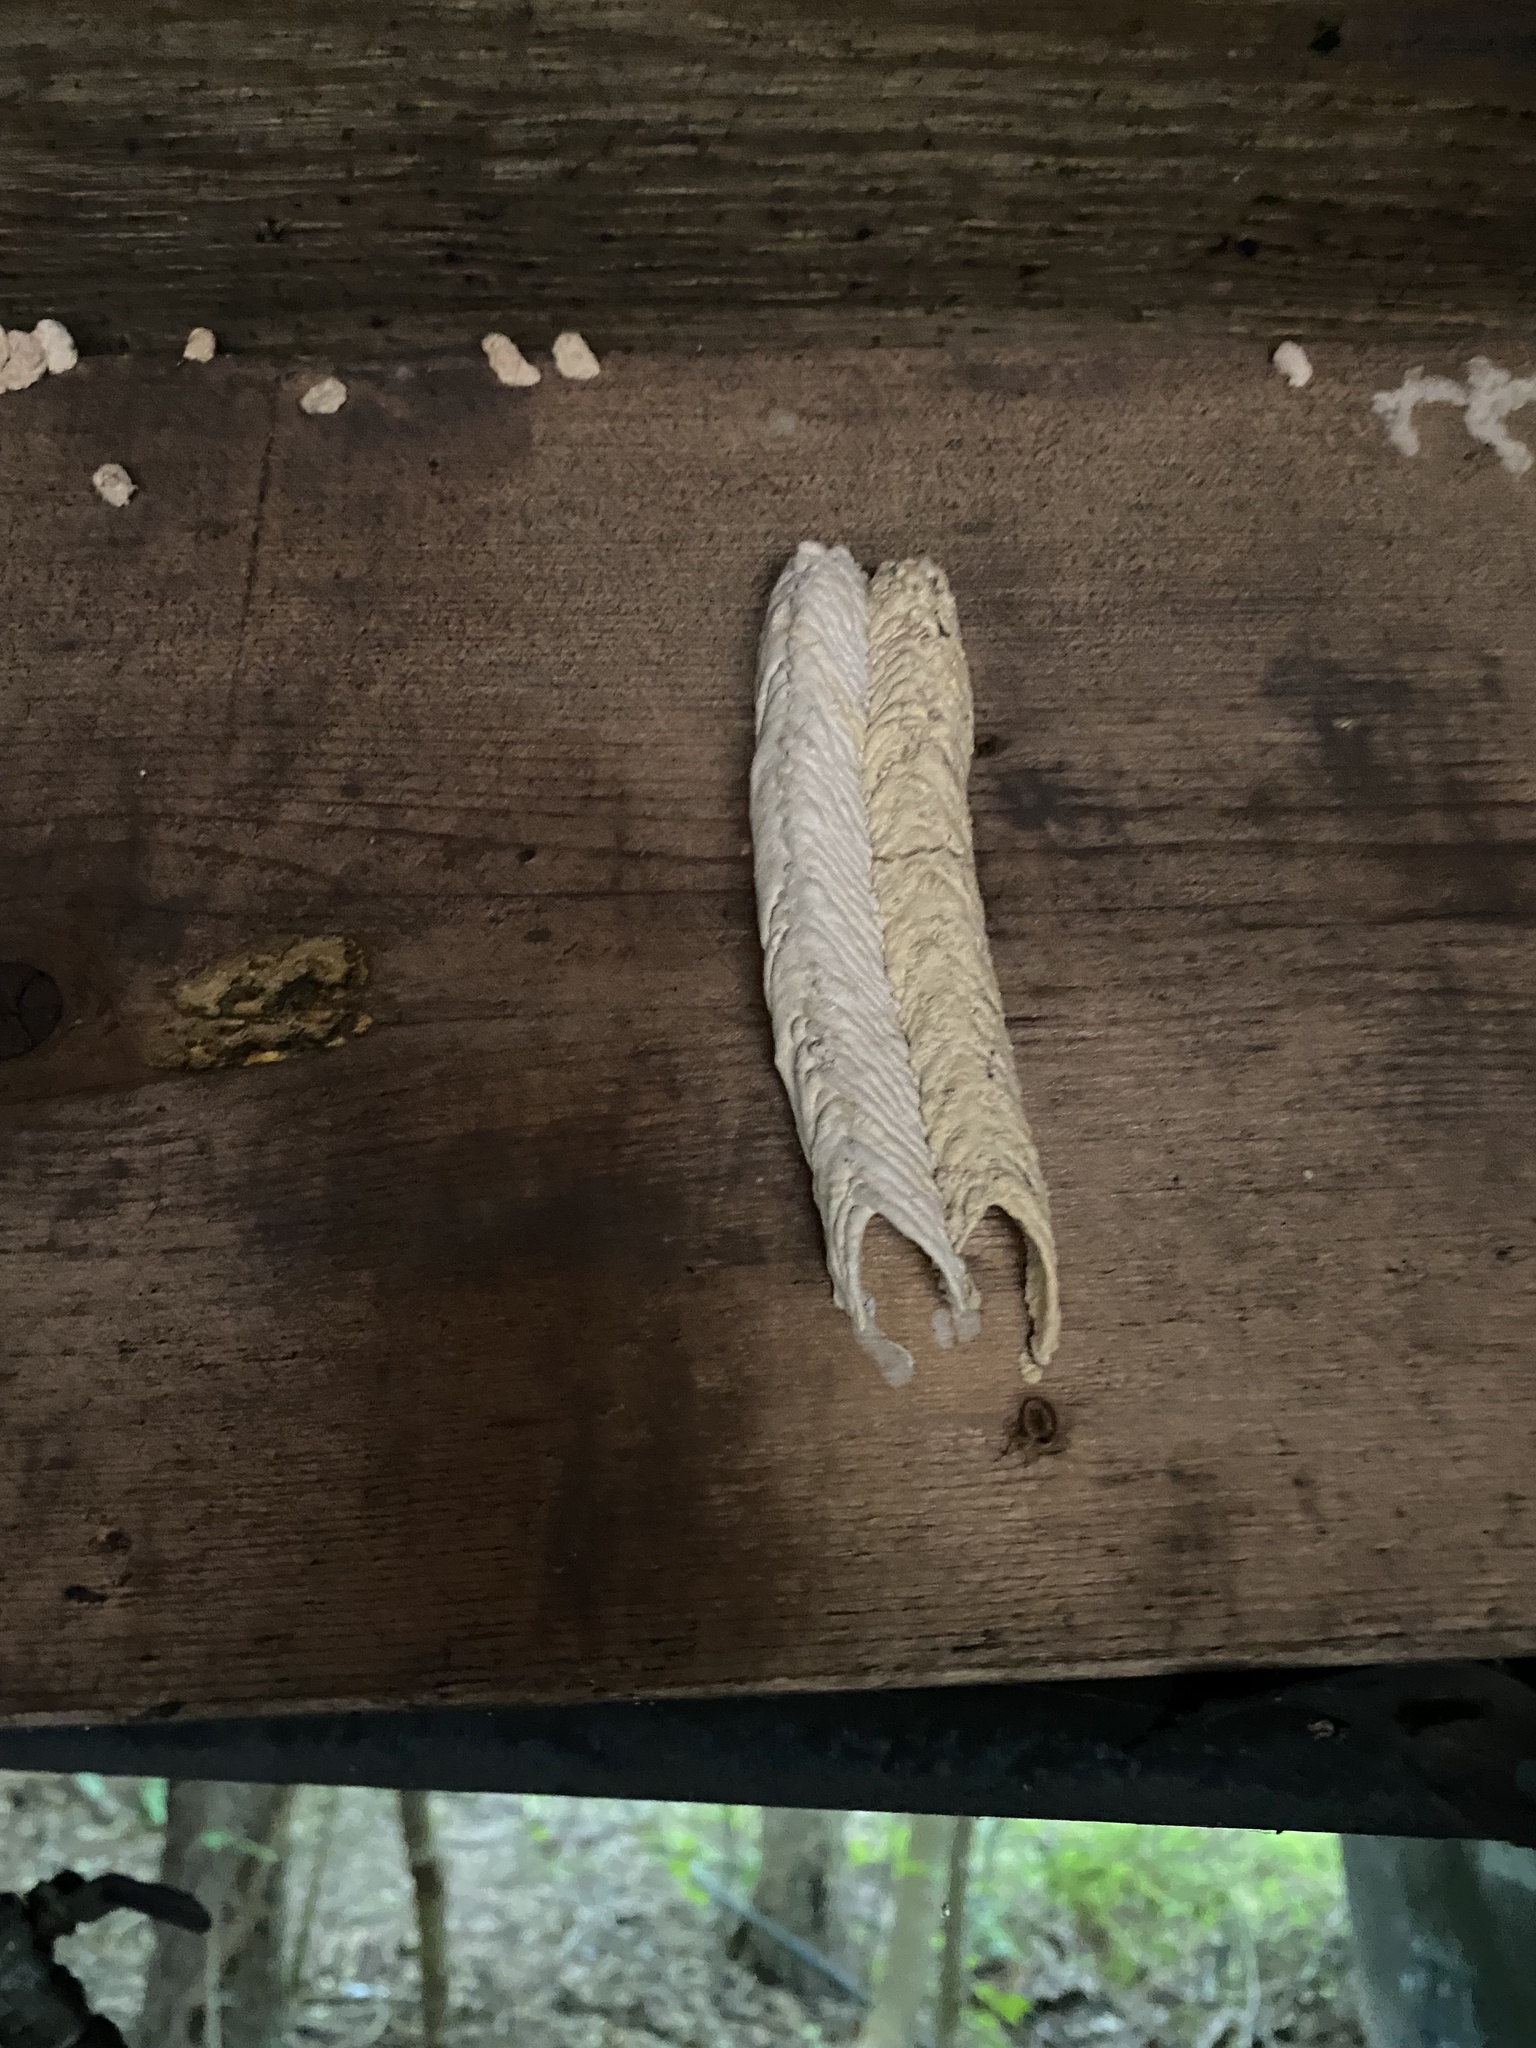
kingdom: Animalia
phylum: Arthropoda
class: Insecta
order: Hymenoptera
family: Crabronidae
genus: Trypoxylon
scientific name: Trypoxylon politum
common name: Organ-pipe mud-dauber wasp
